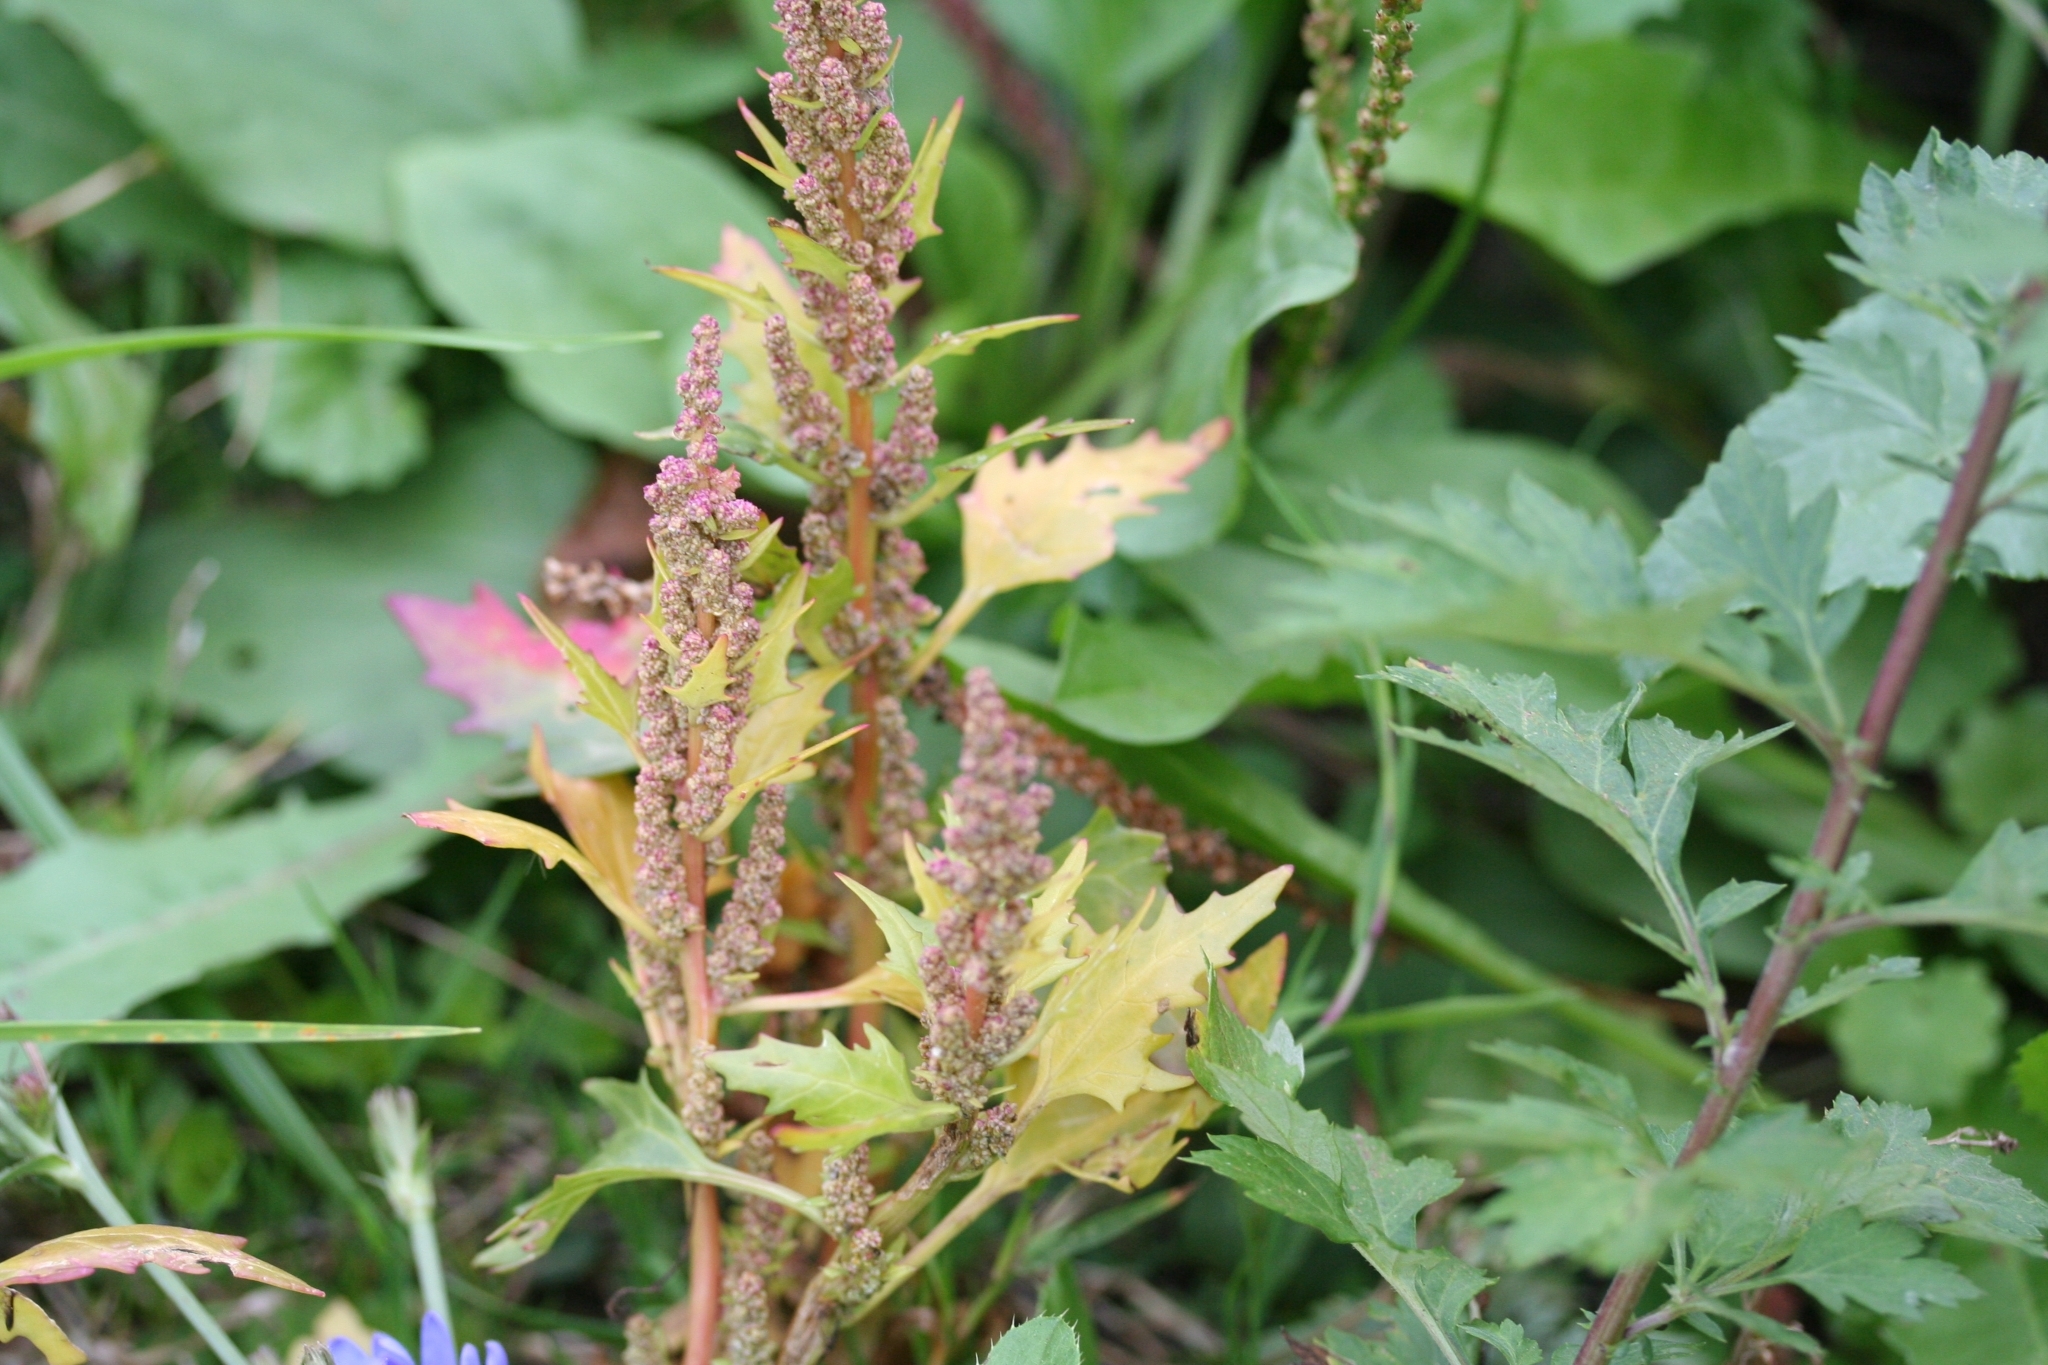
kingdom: Plantae
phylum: Tracheophyta
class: Magnoliopsida
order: Caryophyllales
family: Amaranthaceae
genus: Oxybasis
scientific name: Oxybasis rubra
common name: Red goosefoot
